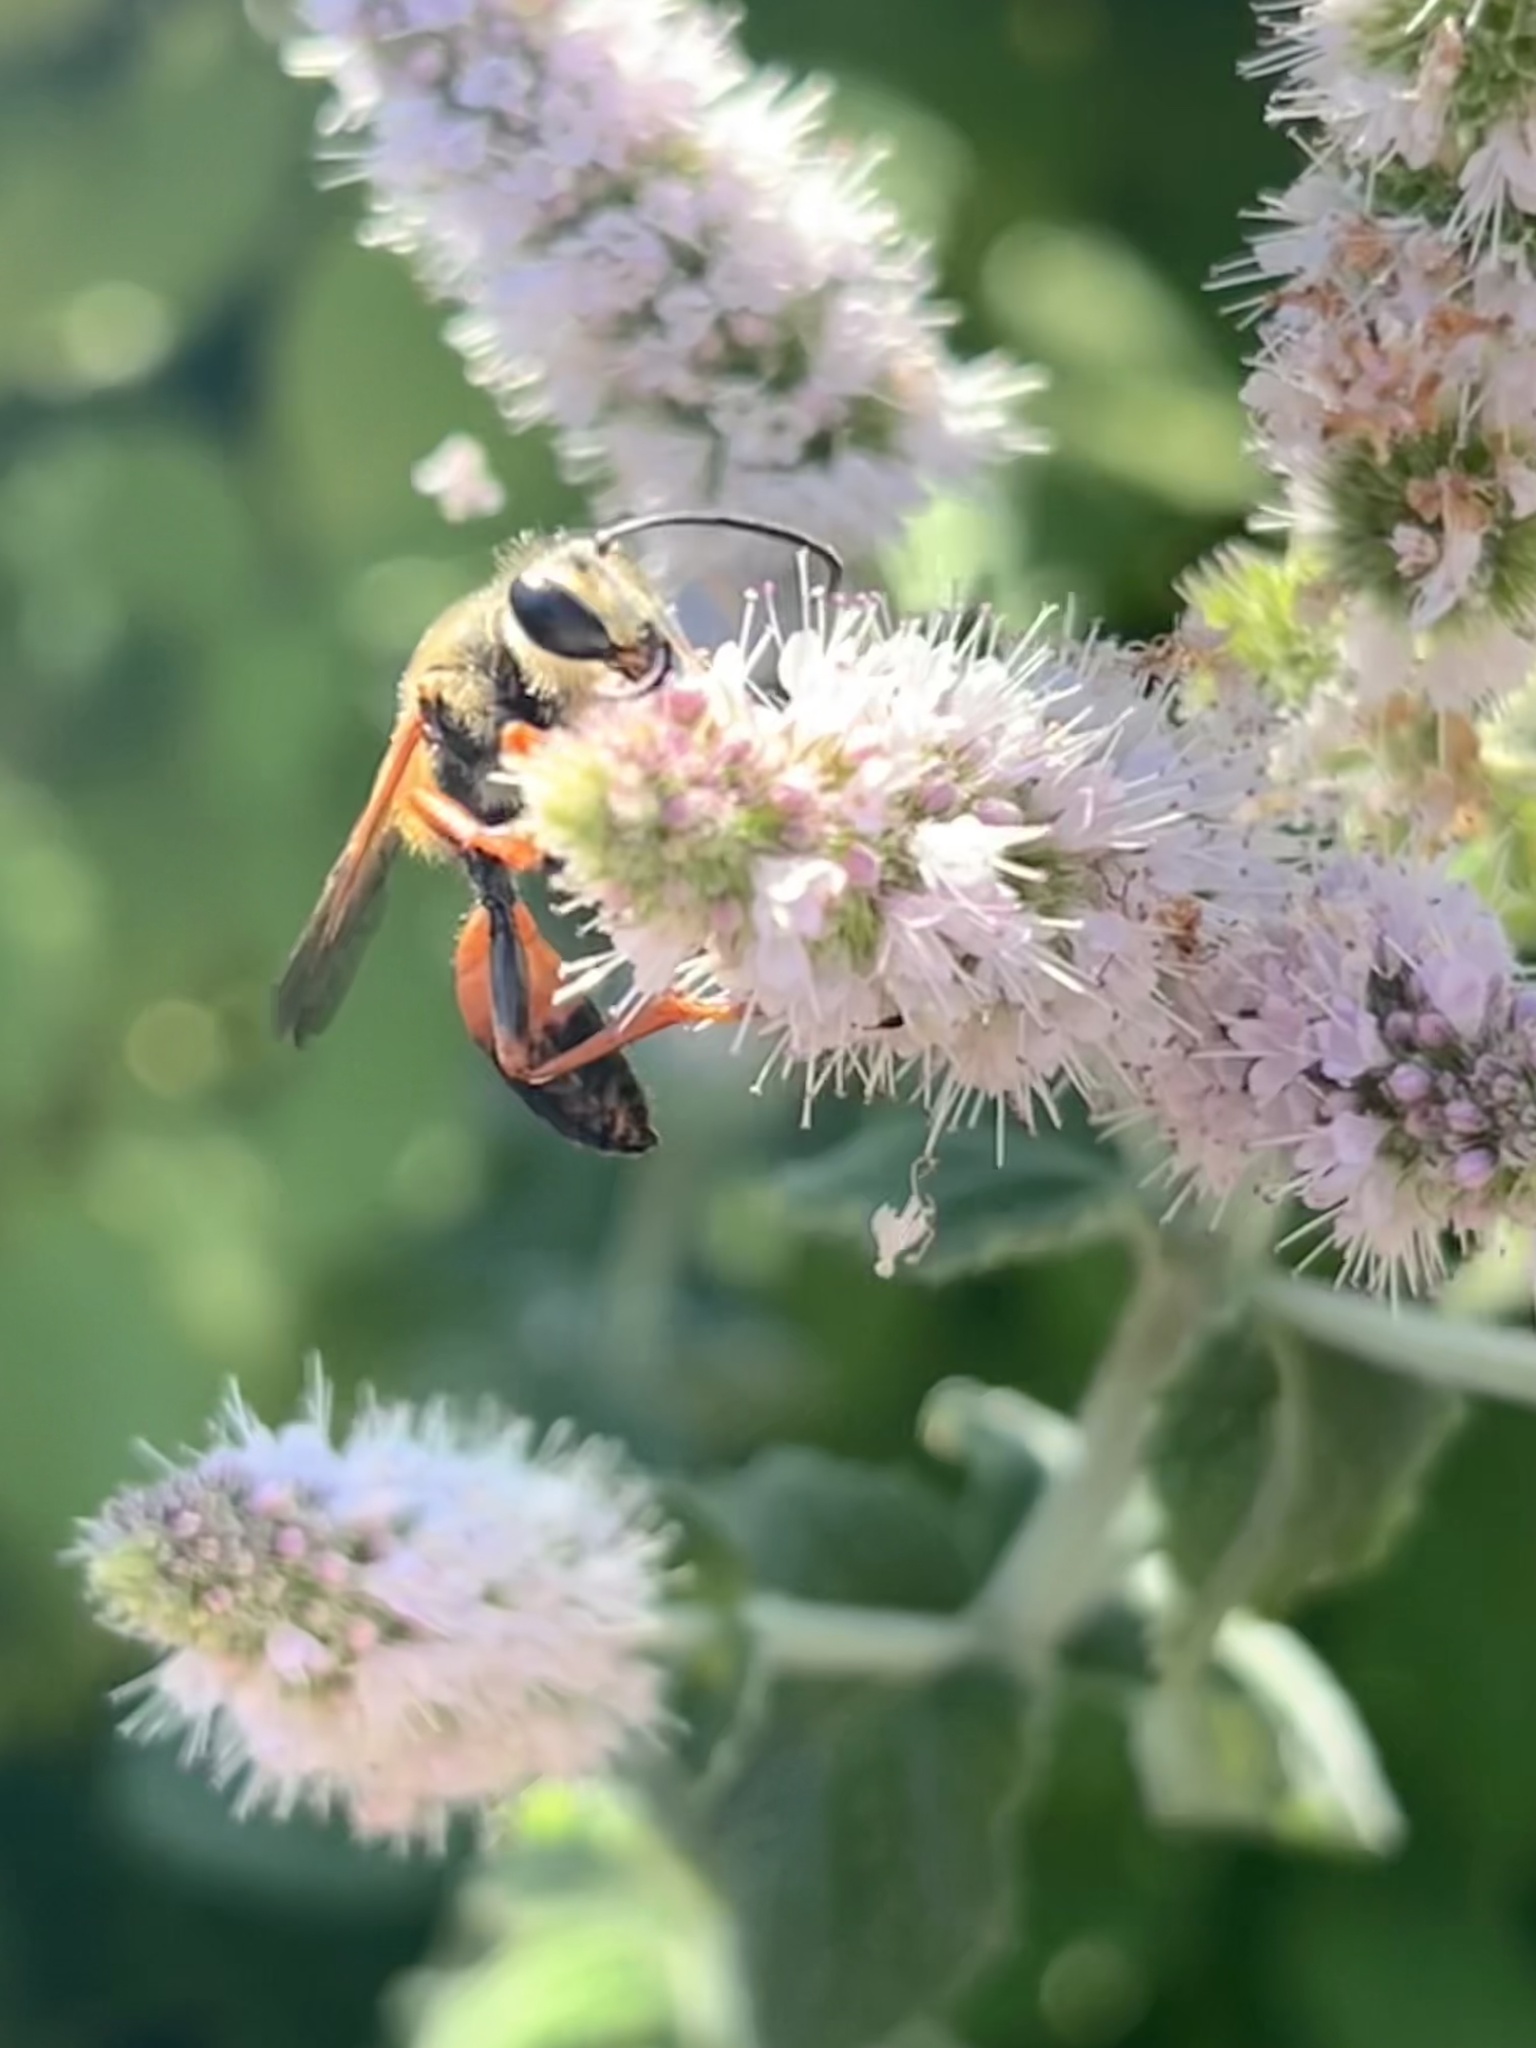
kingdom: Animalia
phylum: Arthropoda
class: Insecta
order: Hymenoptera
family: Sphecidae
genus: Sphex
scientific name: Sphex ichneumoneus
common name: Great golden digger wasp
